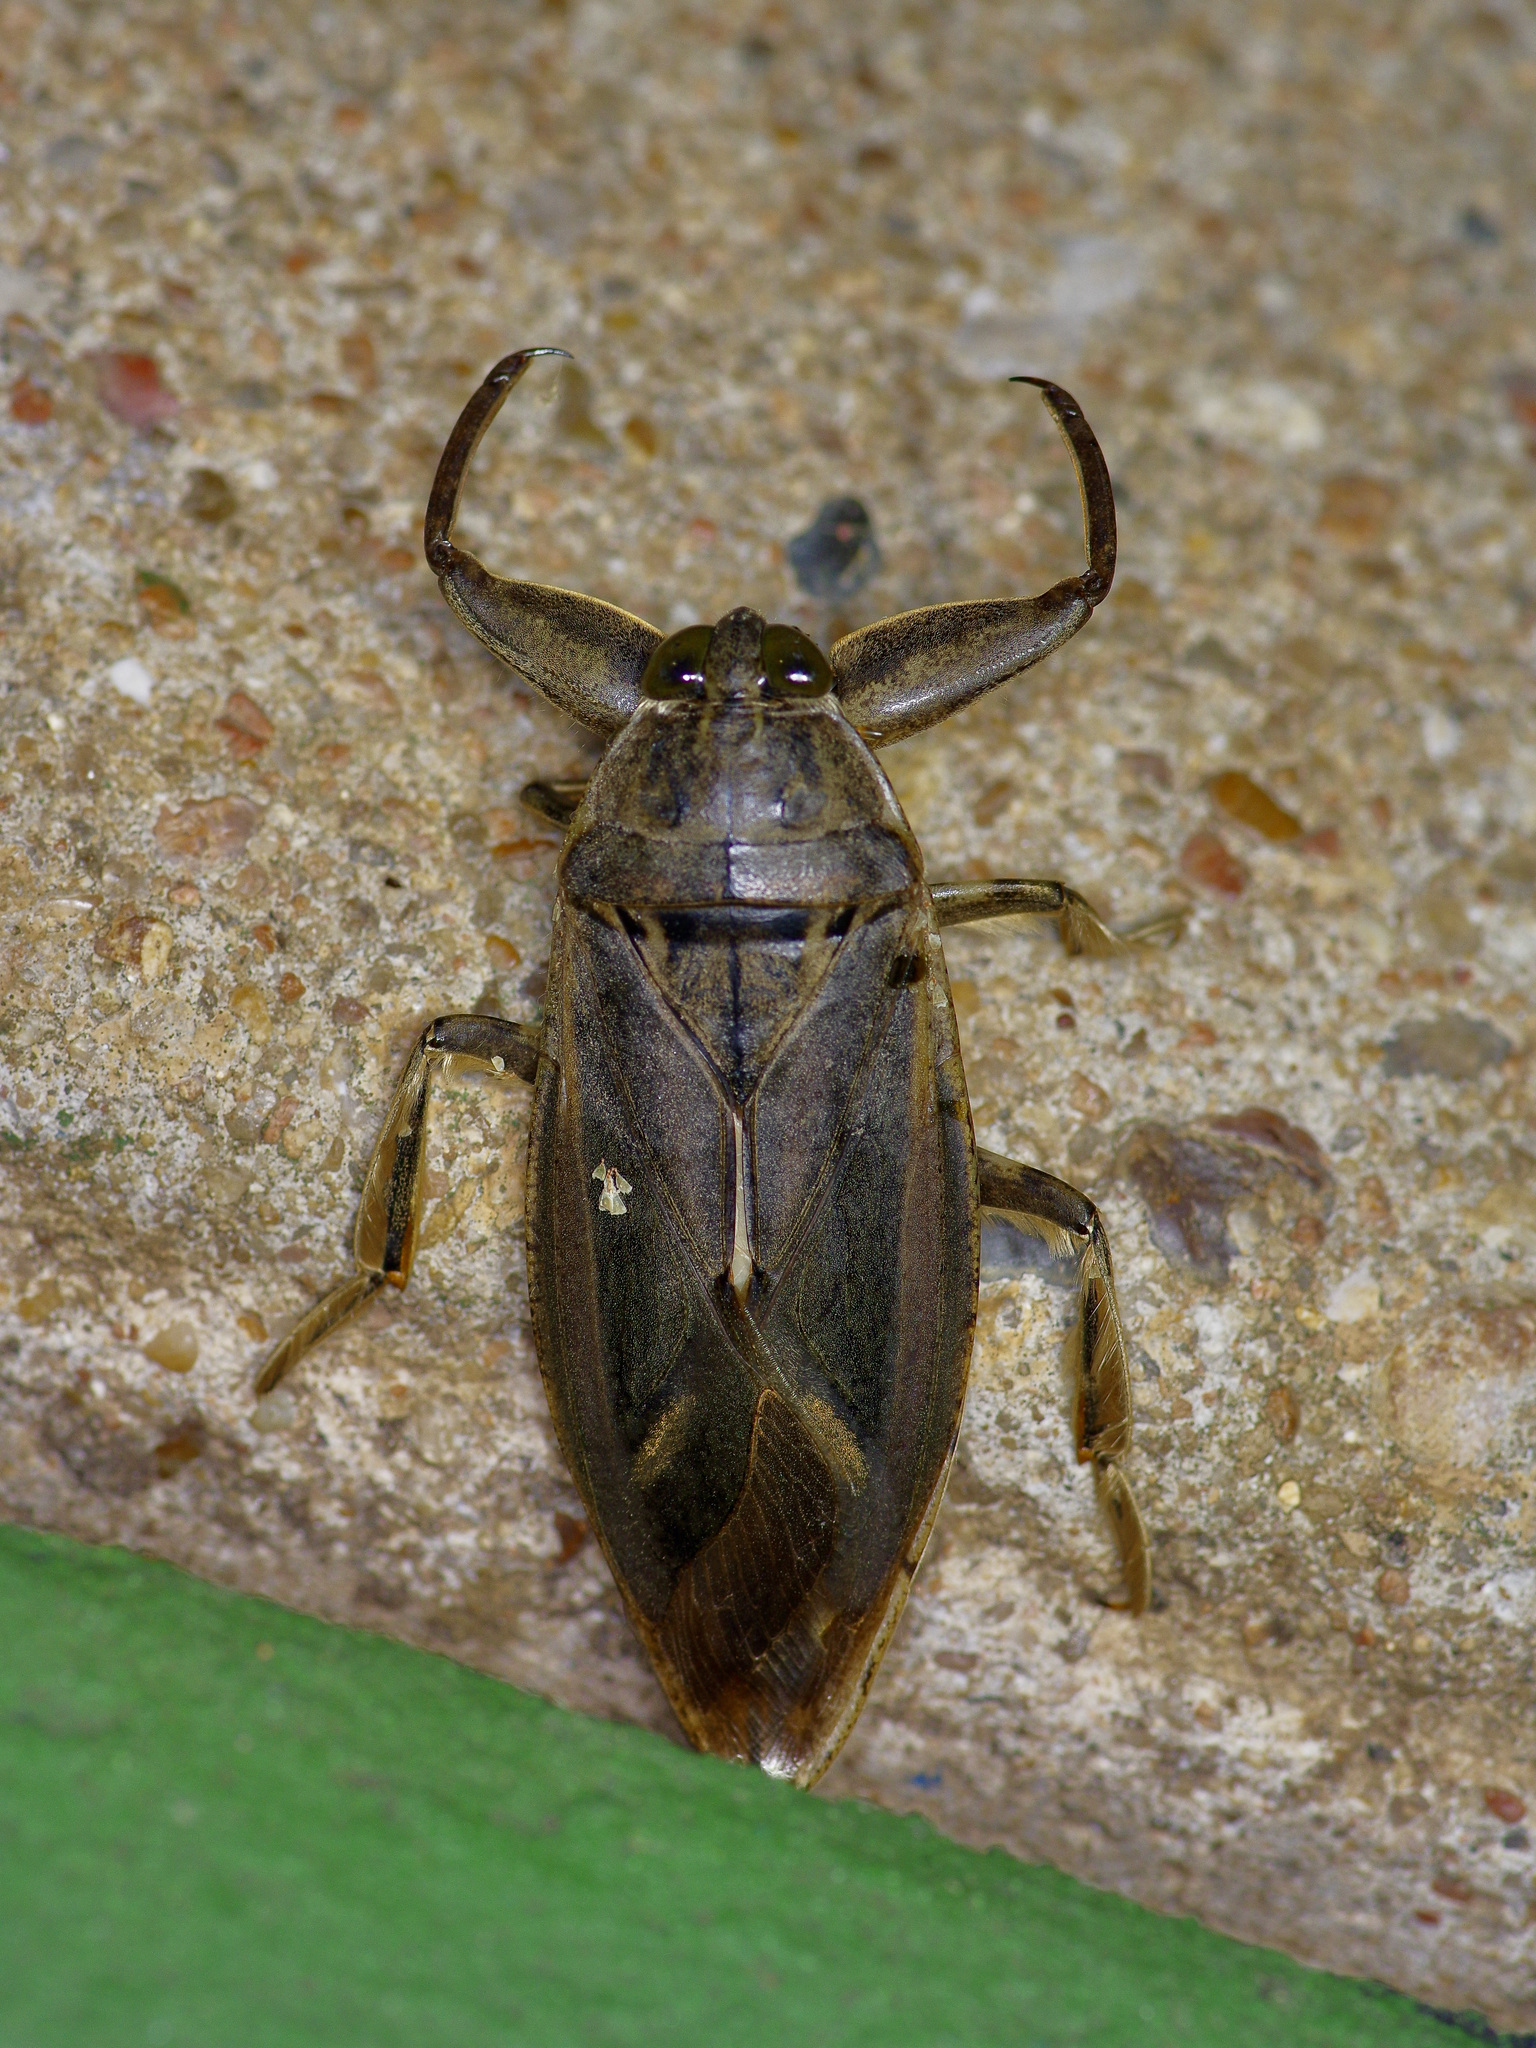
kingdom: Animalia
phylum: Arthropoda
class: Insecta
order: Hemiptera
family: Belostomatidae
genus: Lethocerus
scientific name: Lethocerus uhleri
